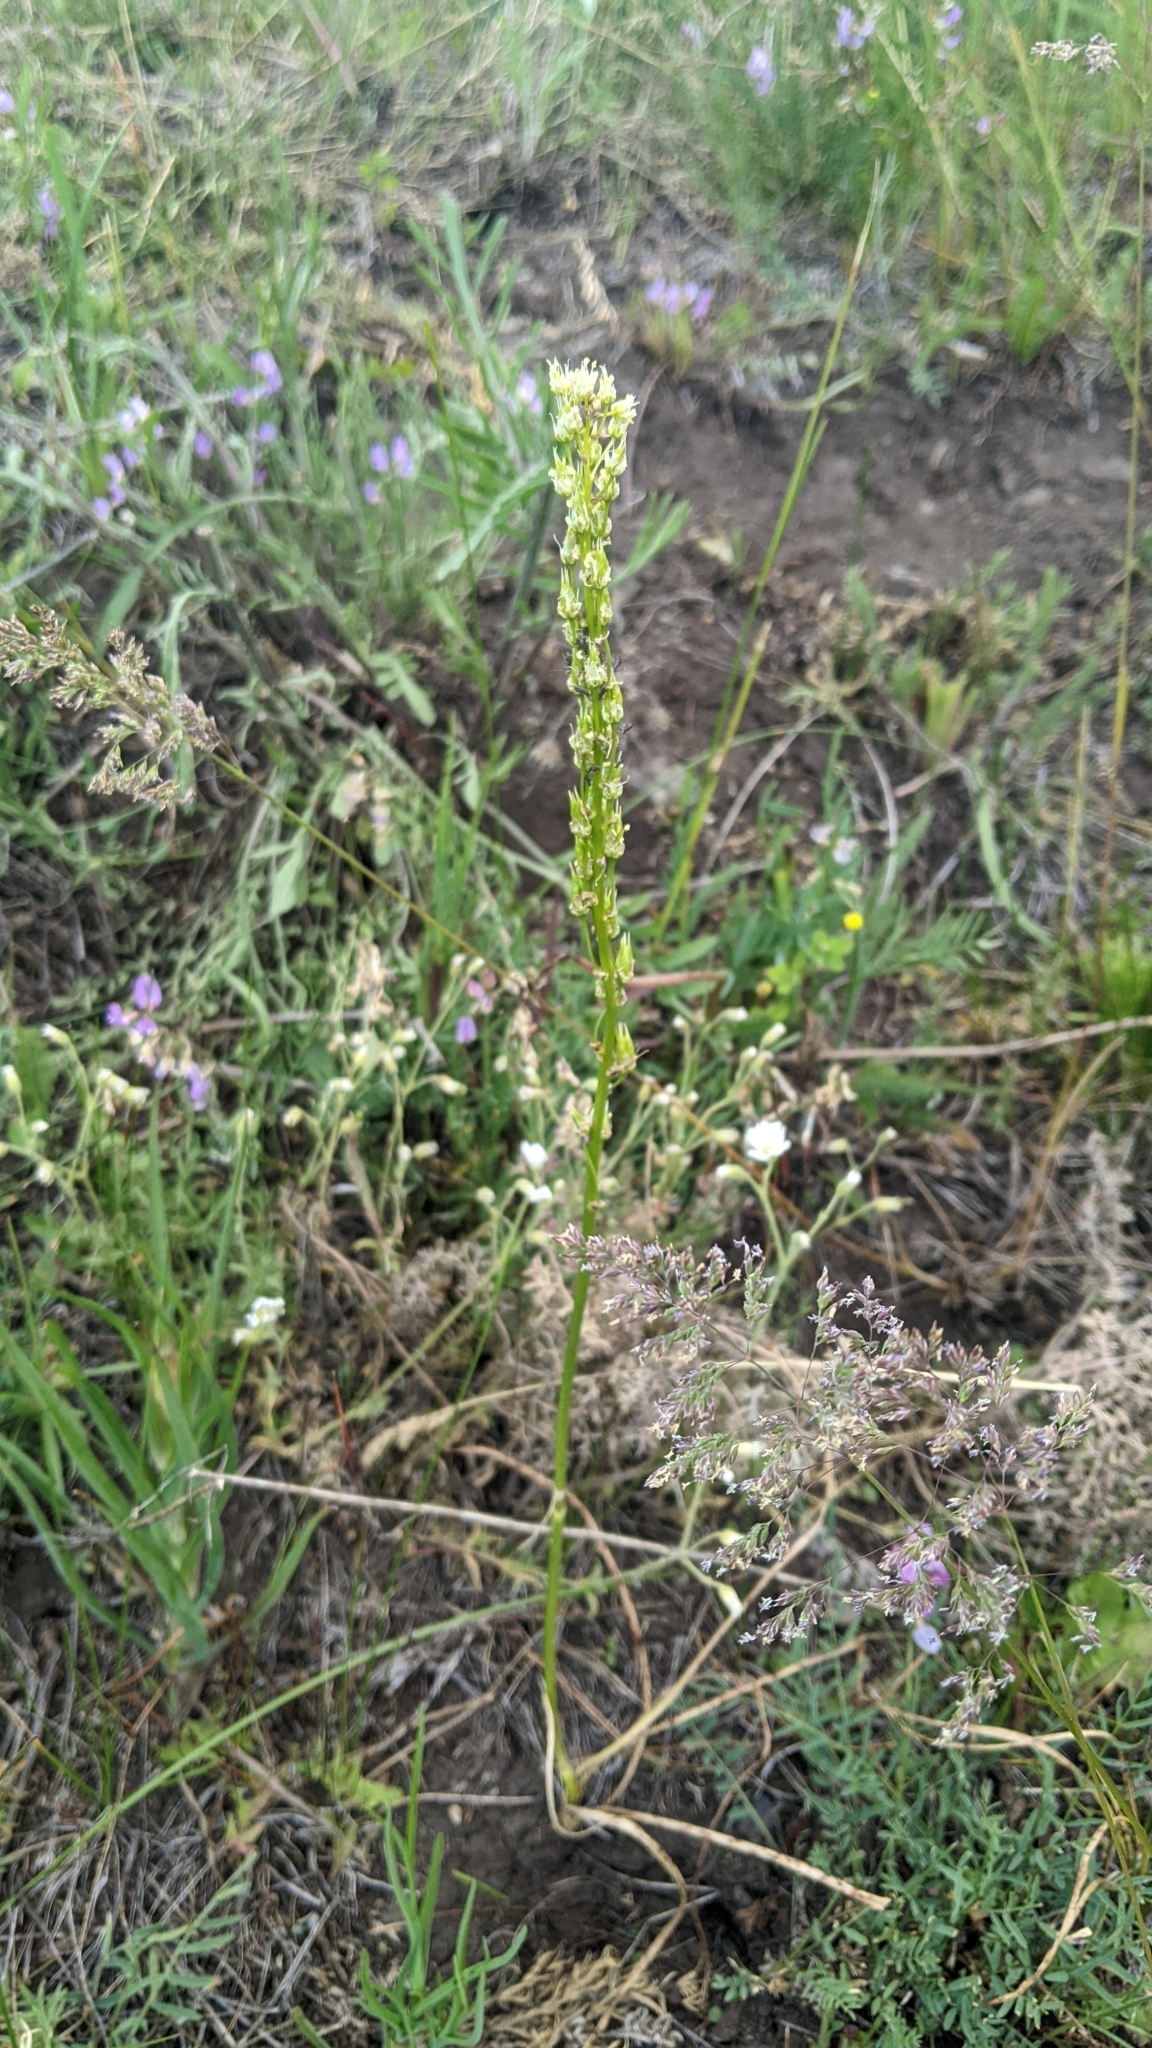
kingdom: Plantae
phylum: Tracheophyta
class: Liliopsida
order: Liliales
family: Melanthiaceae
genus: Toxicoscordion
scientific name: Toxicoscordion venenosum
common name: Meadow death camas
